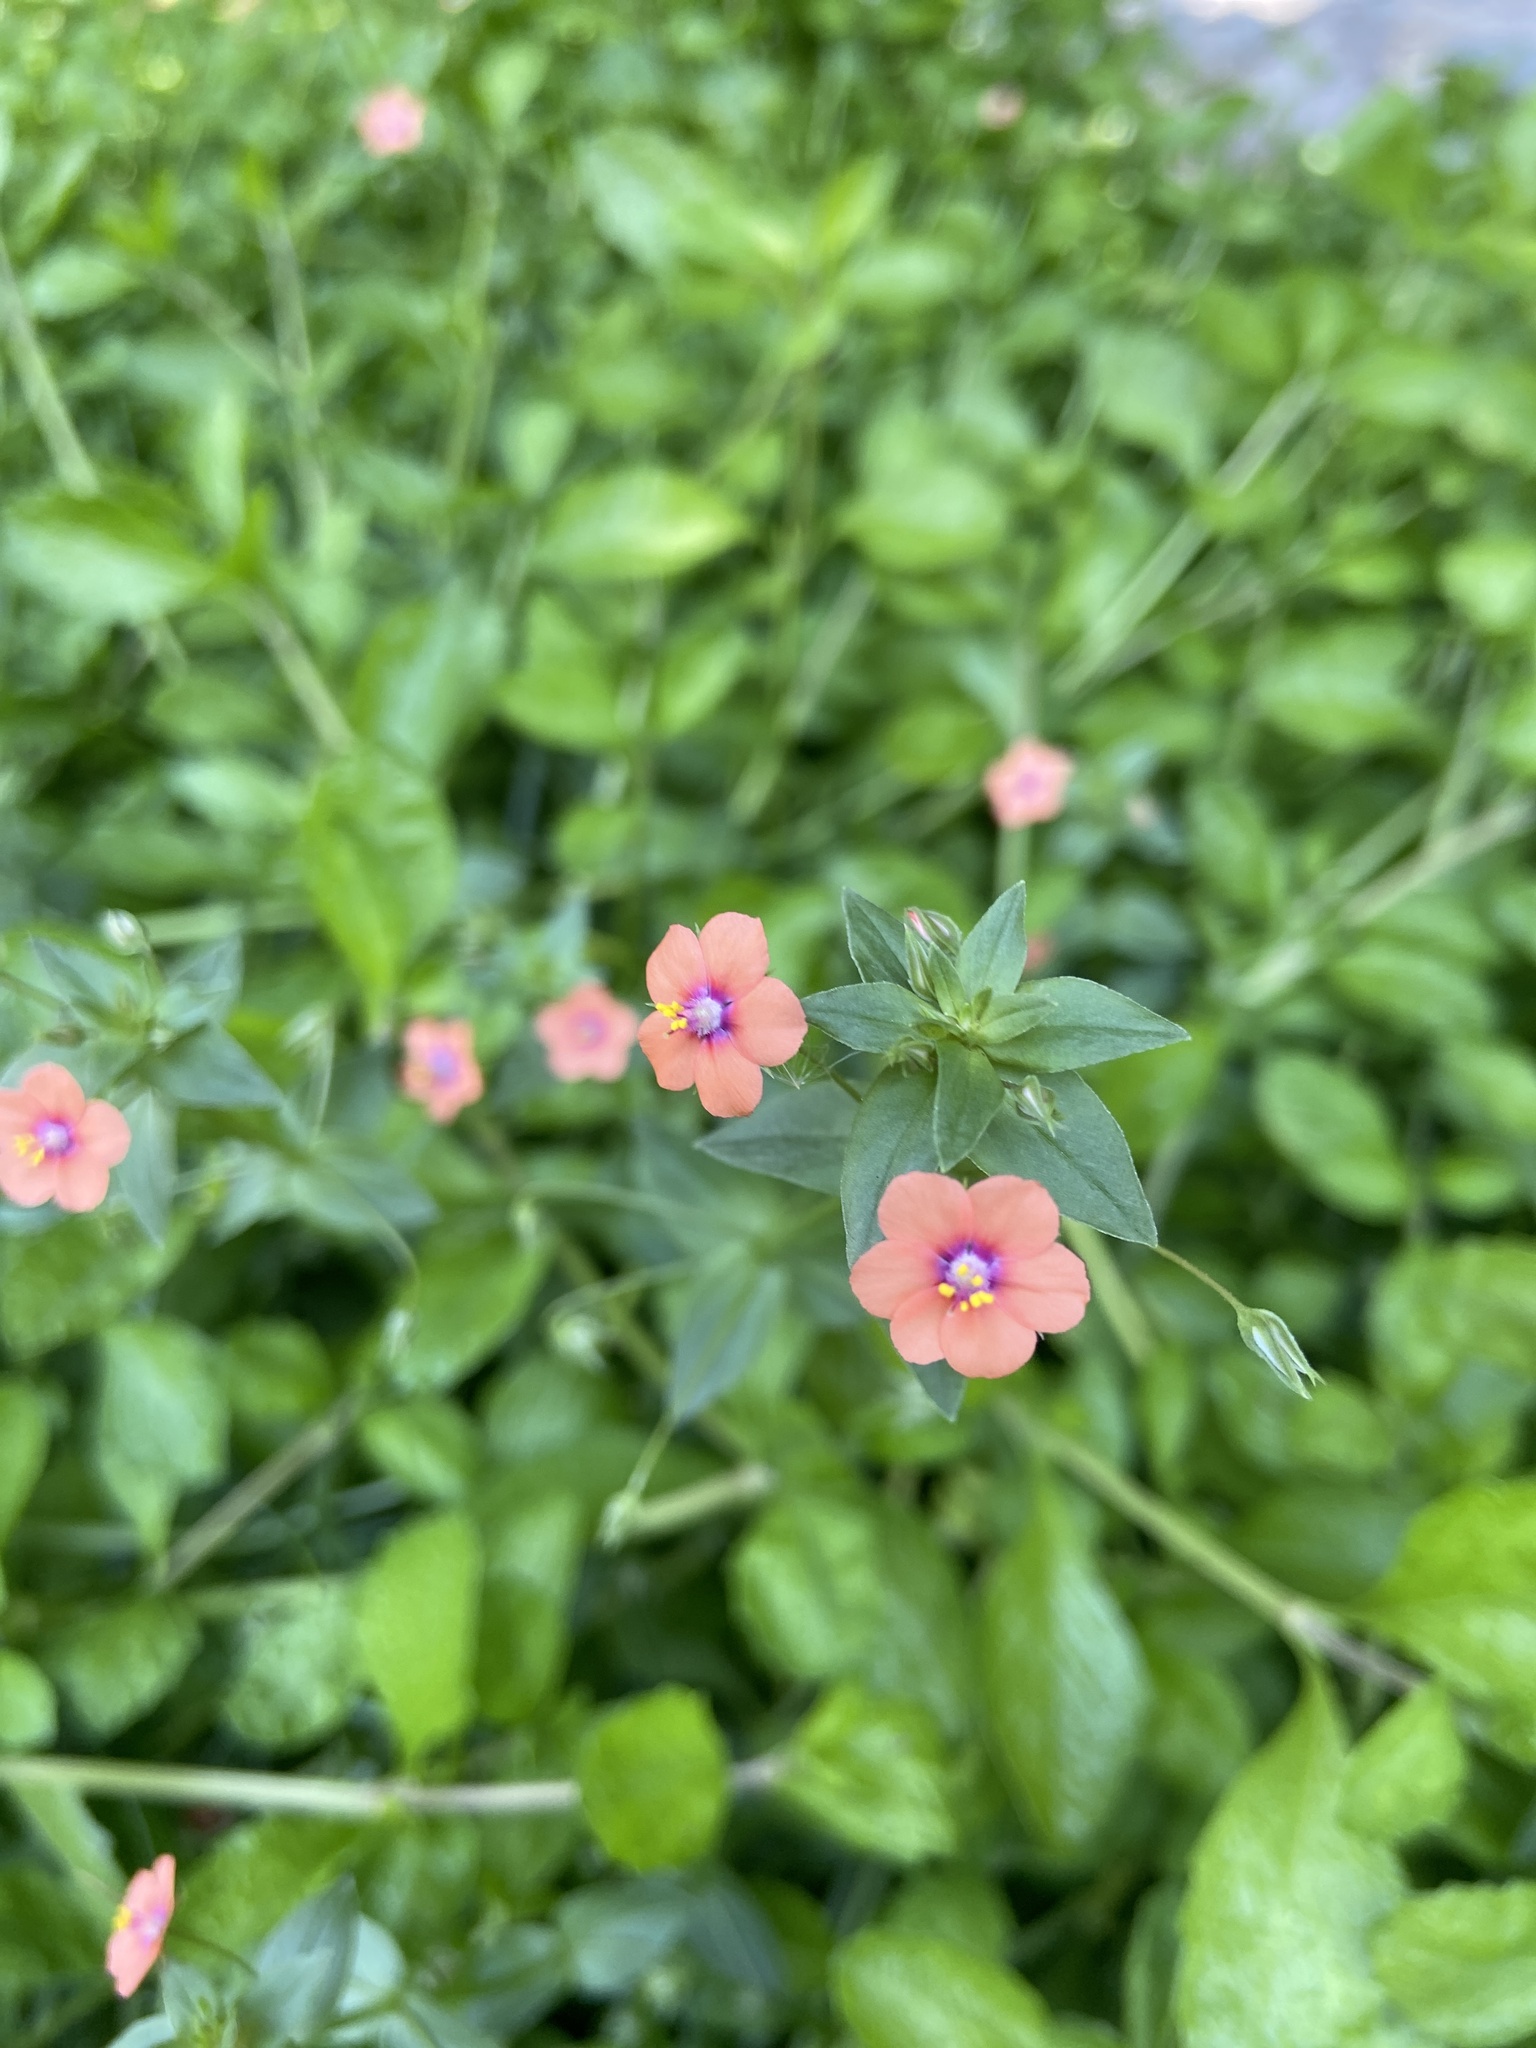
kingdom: Plantae
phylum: Tracheophyta
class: Magnoliopsida
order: Ericales
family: Primulaceae
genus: Lysimachia
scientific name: Lysimachia arvensis
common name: Scarlet pimpernel
